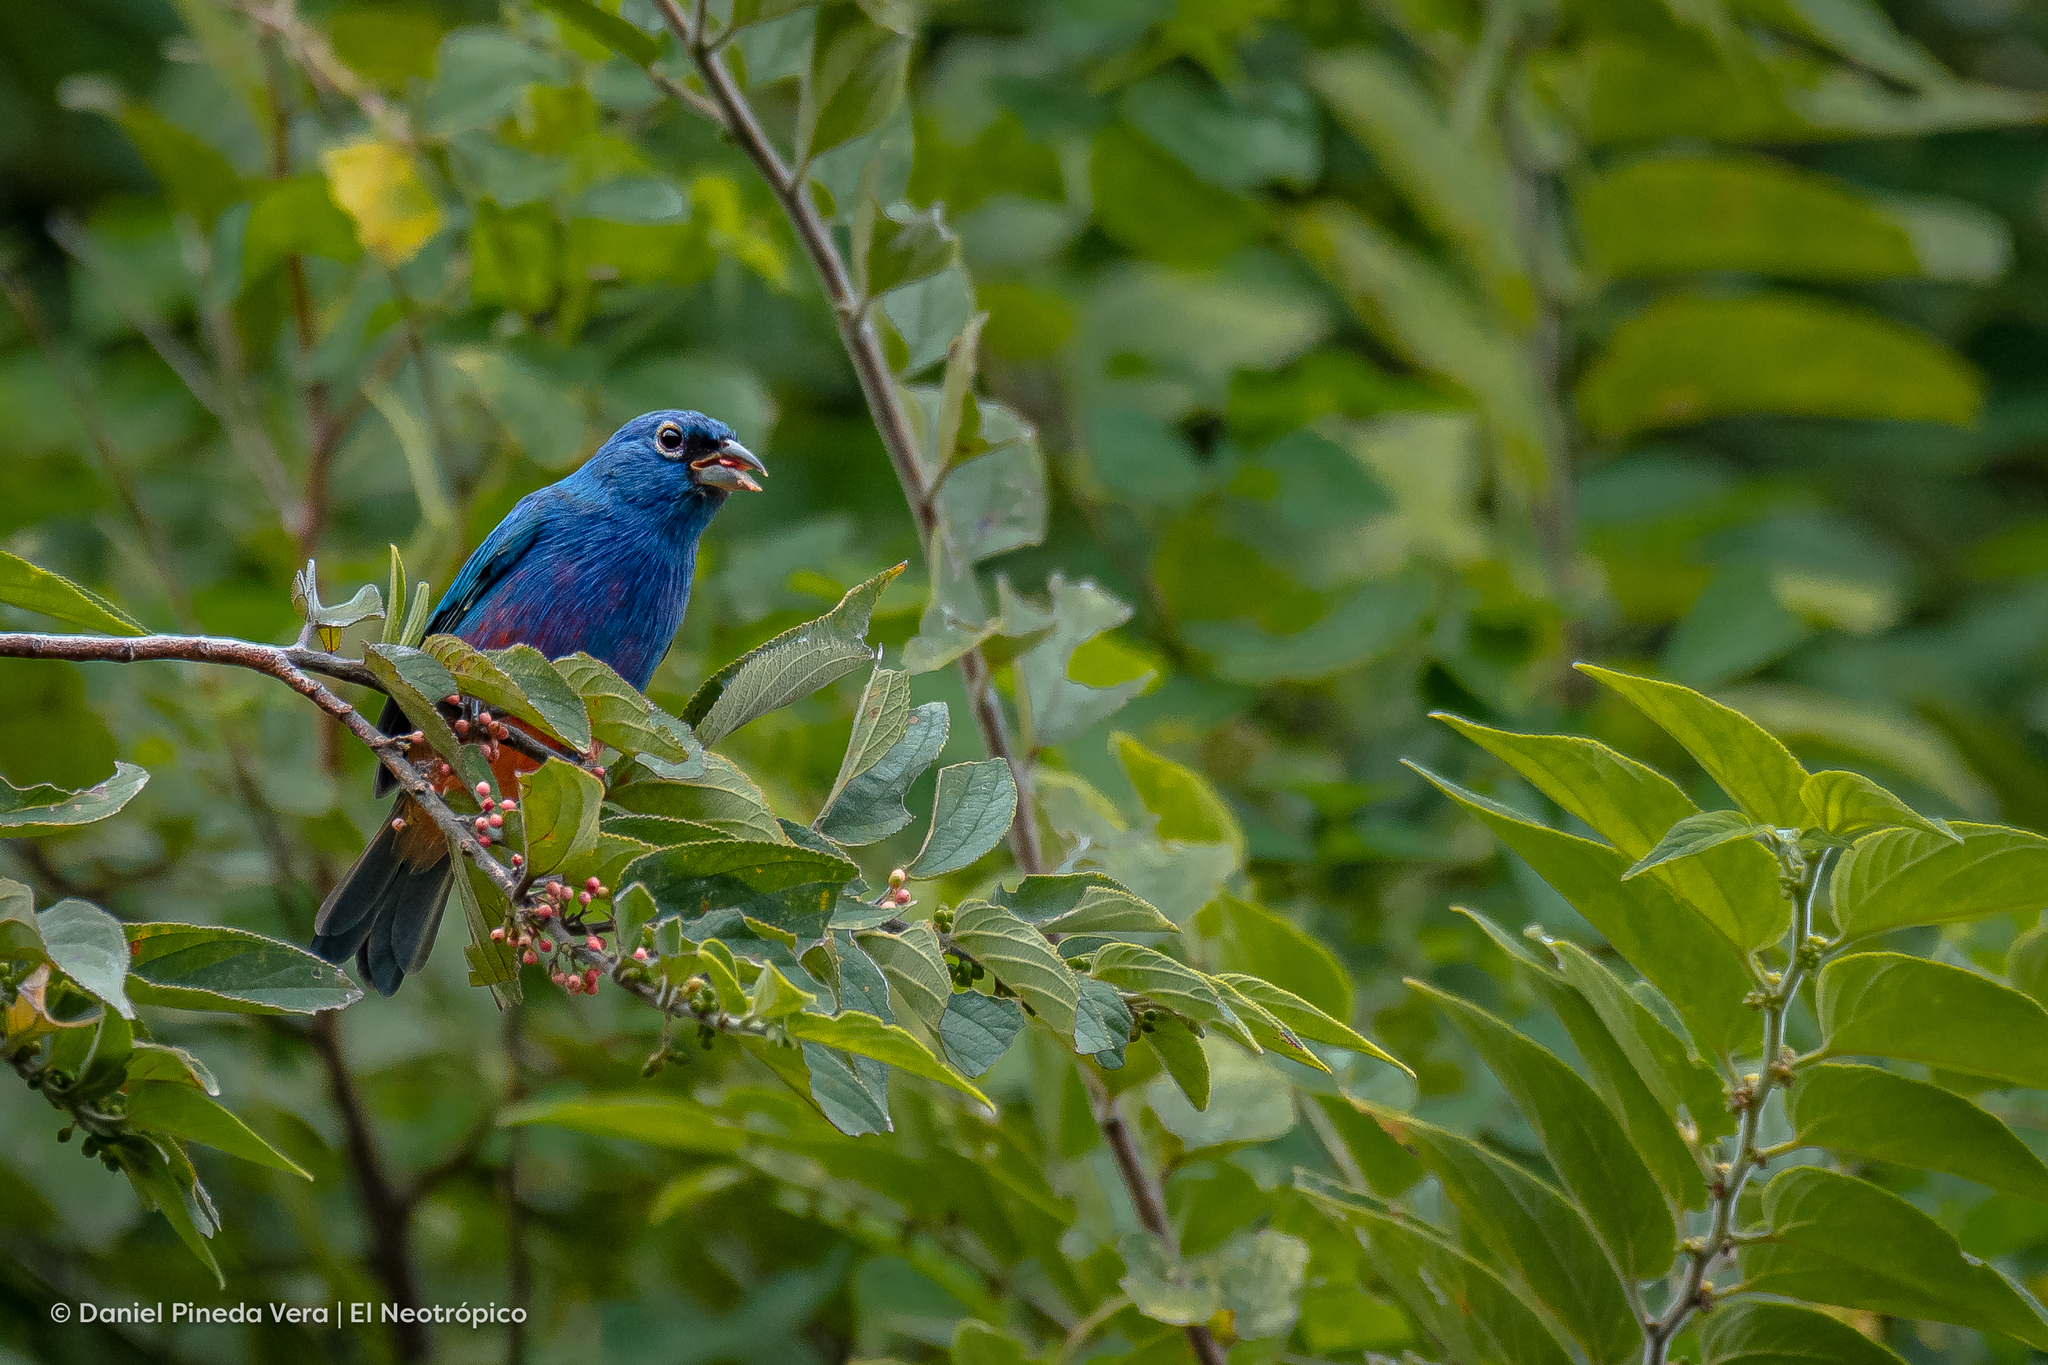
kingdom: Animalia
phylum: Chordata
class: Aves
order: Passeriformes
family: Cardinalidae
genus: Passerina
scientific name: Passerina rositae
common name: Rose-bellied bunting
